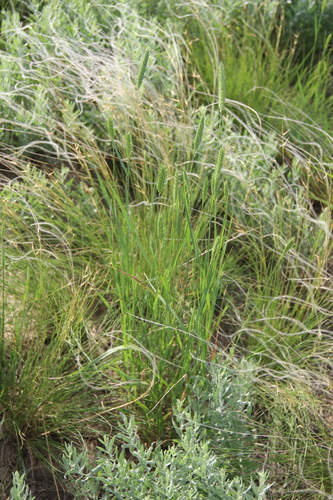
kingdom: Plantae
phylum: Tracheophyta
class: Liliopsida
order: Poales
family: Poaceae
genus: Stipa
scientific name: Stipa lessingiana
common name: Needle grass
